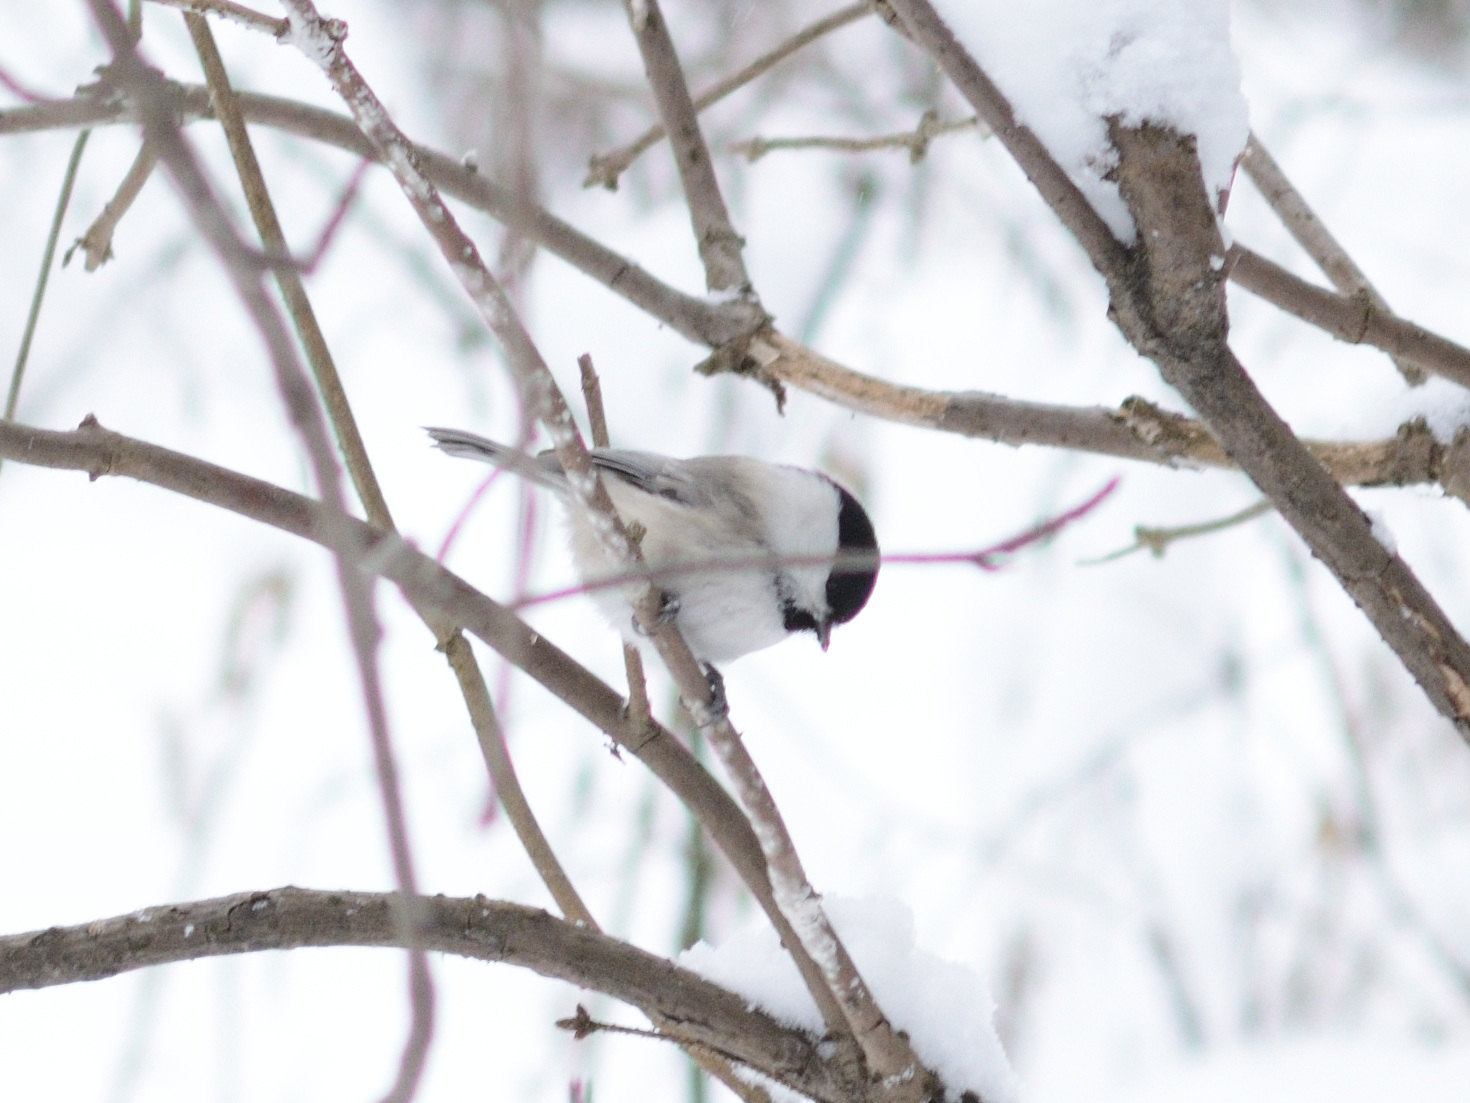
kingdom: Animalia
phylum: Chordata
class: Aves
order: Passeriformes
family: Paridae
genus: Poecile
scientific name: Poecile montanus
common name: Willow tit
